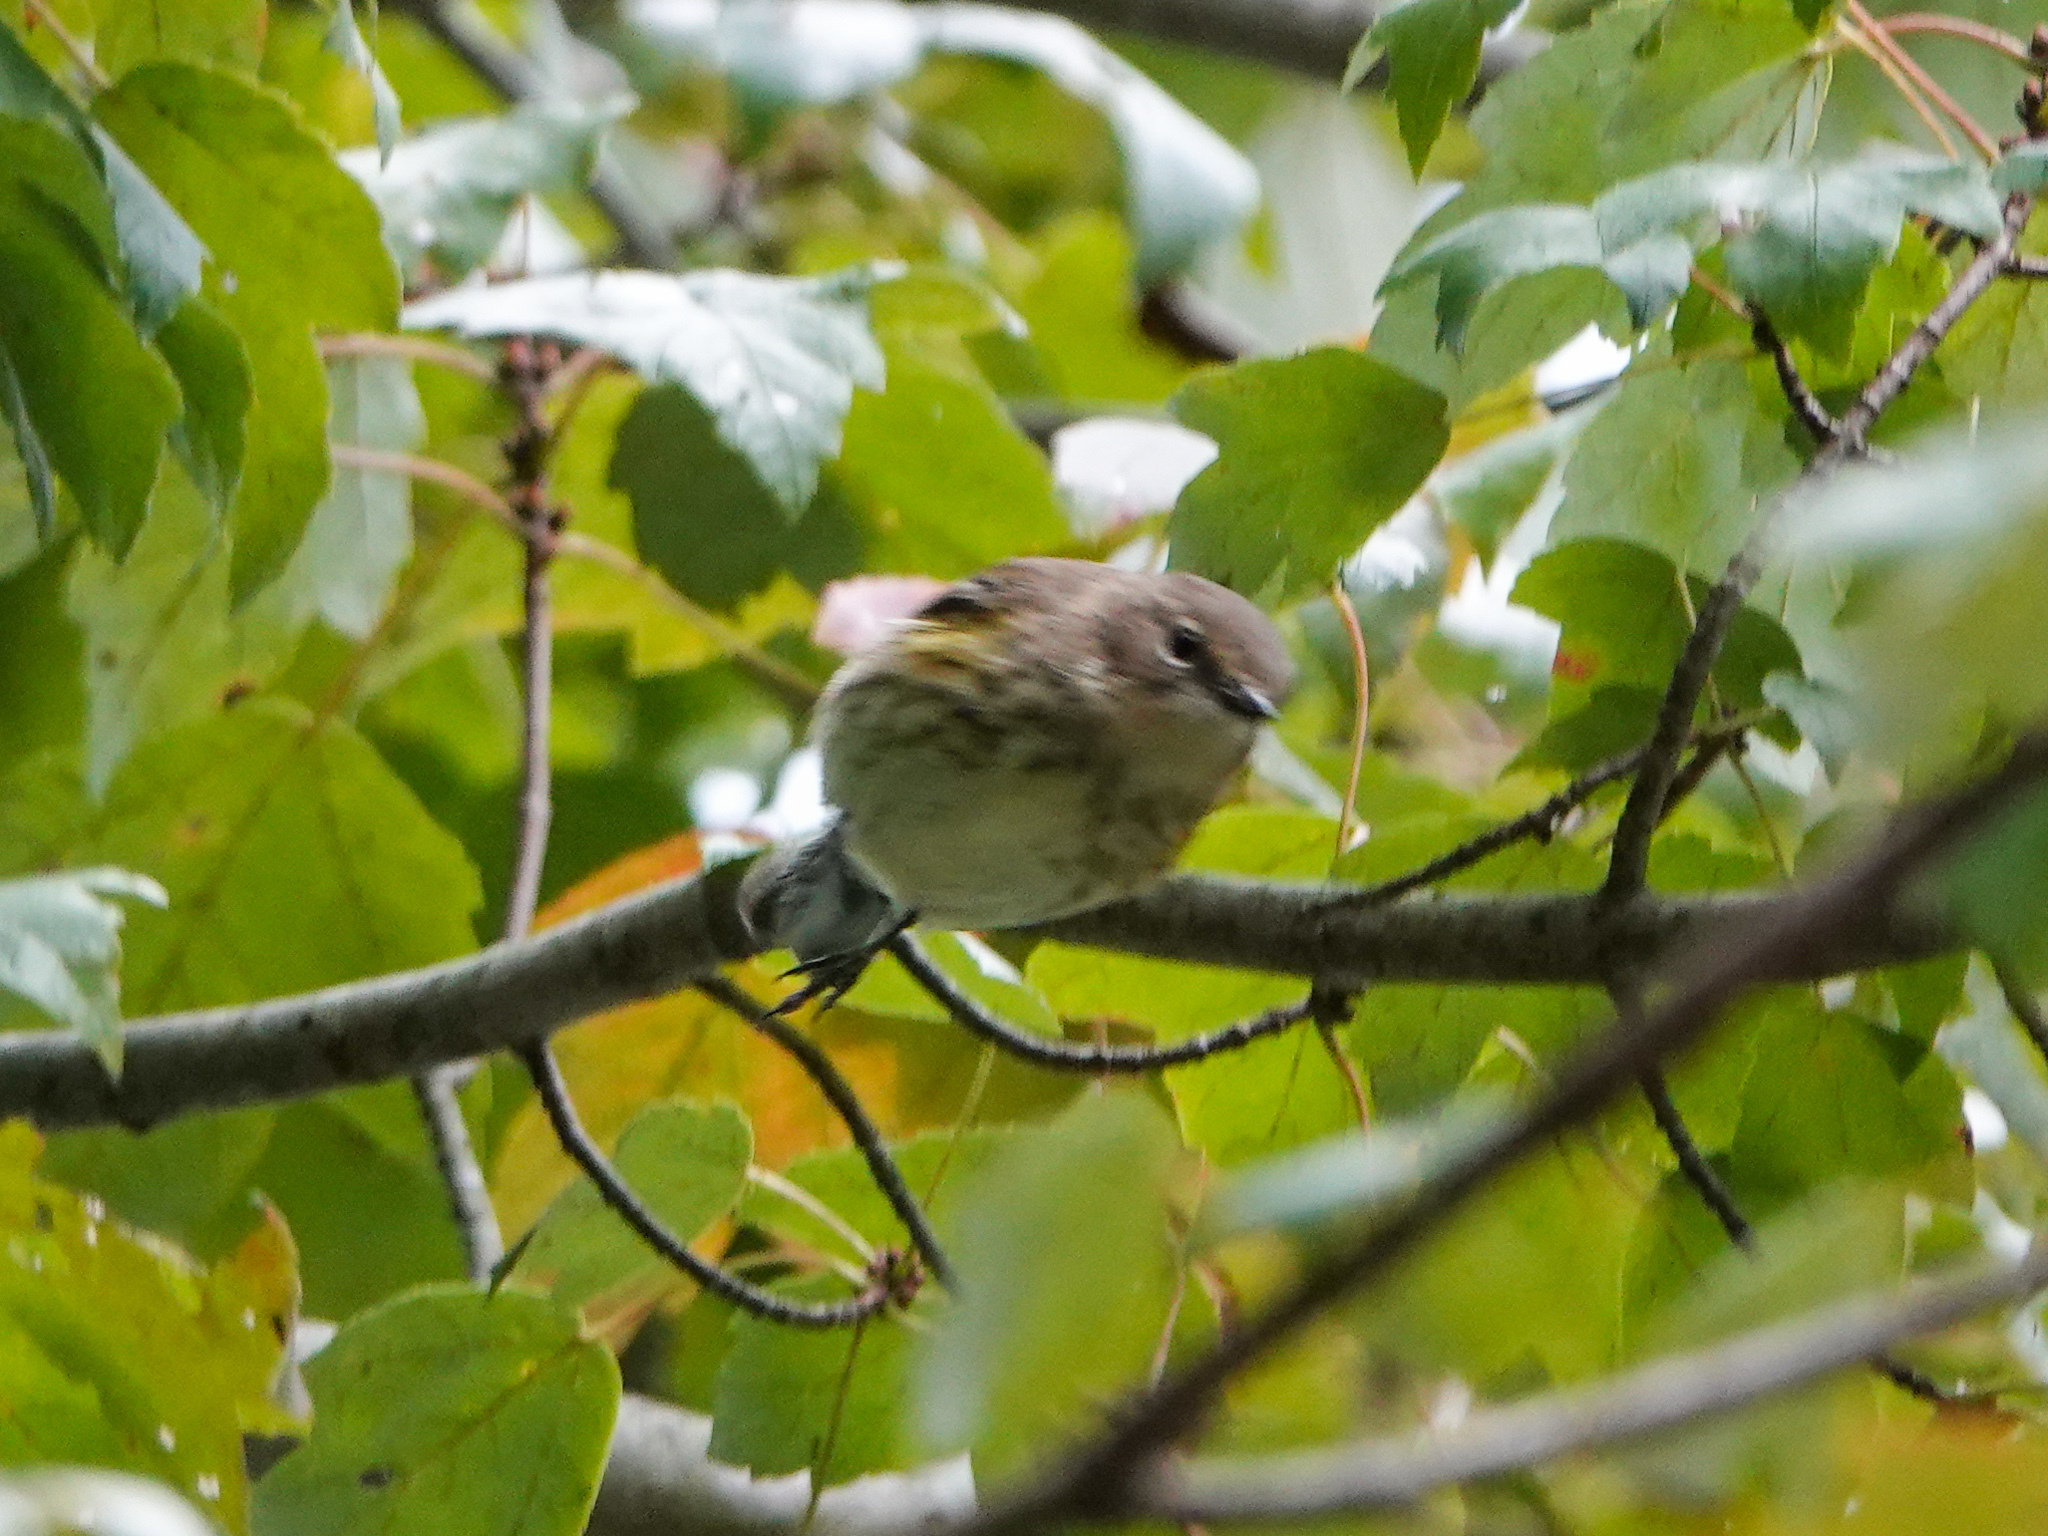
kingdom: Animalia
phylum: Chordata
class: Aves
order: Passeriformes
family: Parulidae
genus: Setophaga
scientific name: Setophaga coronata
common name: Myrtle warbler
